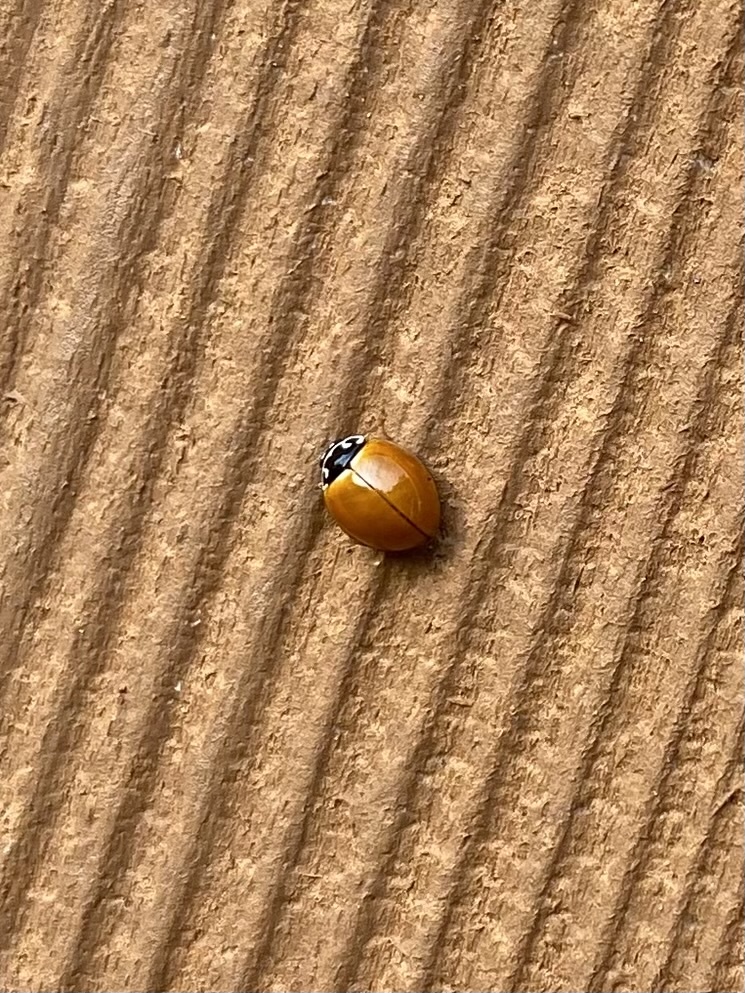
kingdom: Animalia
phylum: Arthropoda
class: Insecta
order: Coleoptera
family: Coccinellidae
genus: Cycloneda
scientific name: Cycloneda munda
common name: Polished lady beetle
